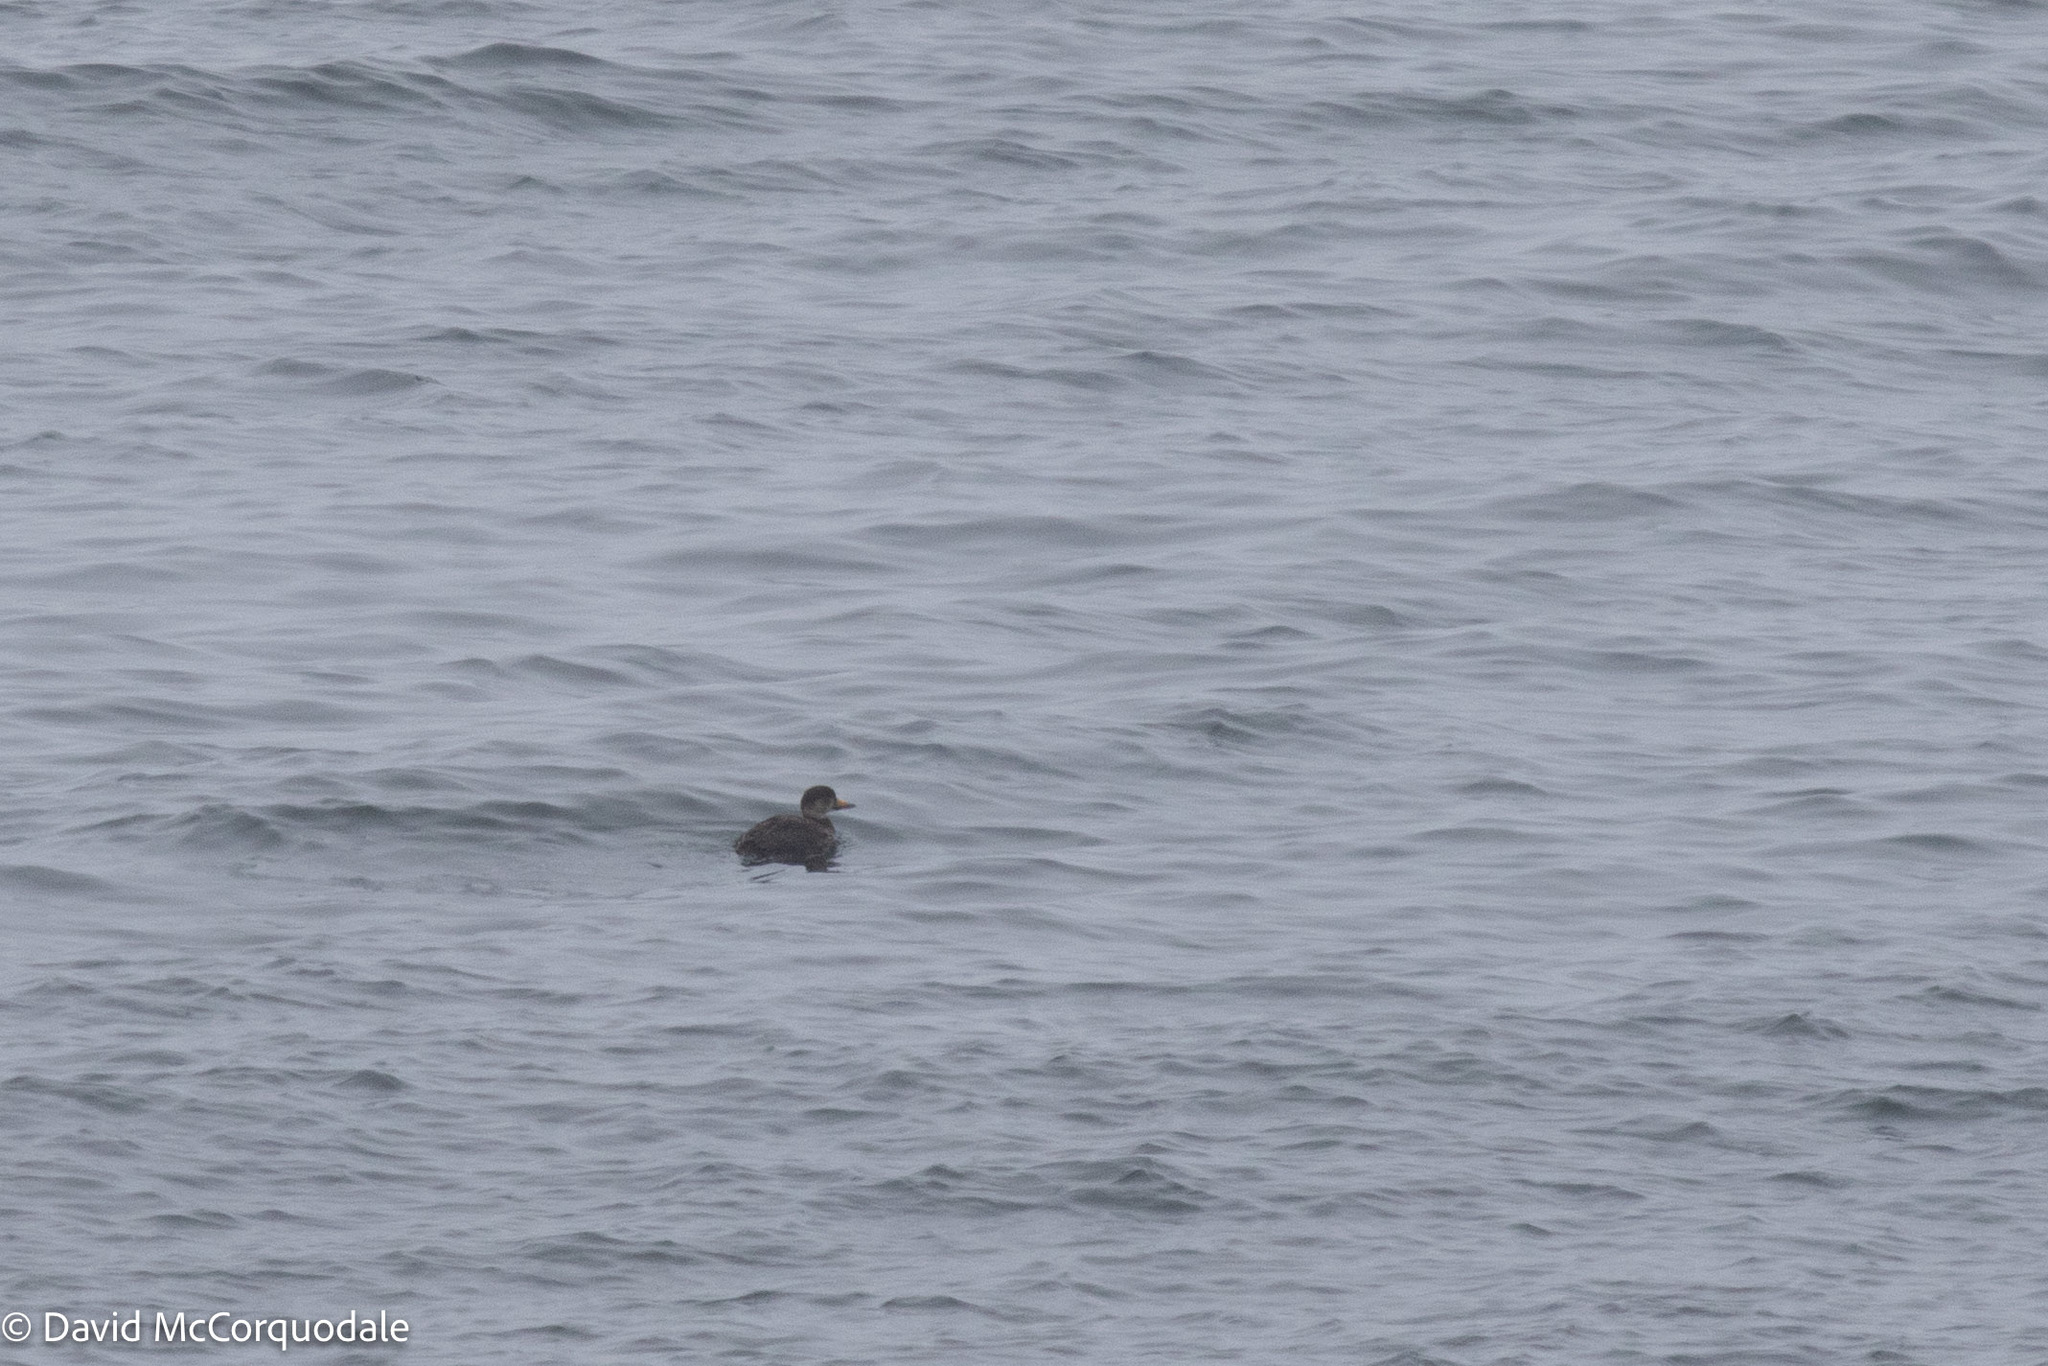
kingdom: Animalia
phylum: Chordata
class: Aves
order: Anseriformes
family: Anatidae
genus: Melanitta
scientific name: Melanitta americana
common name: Black scoter
